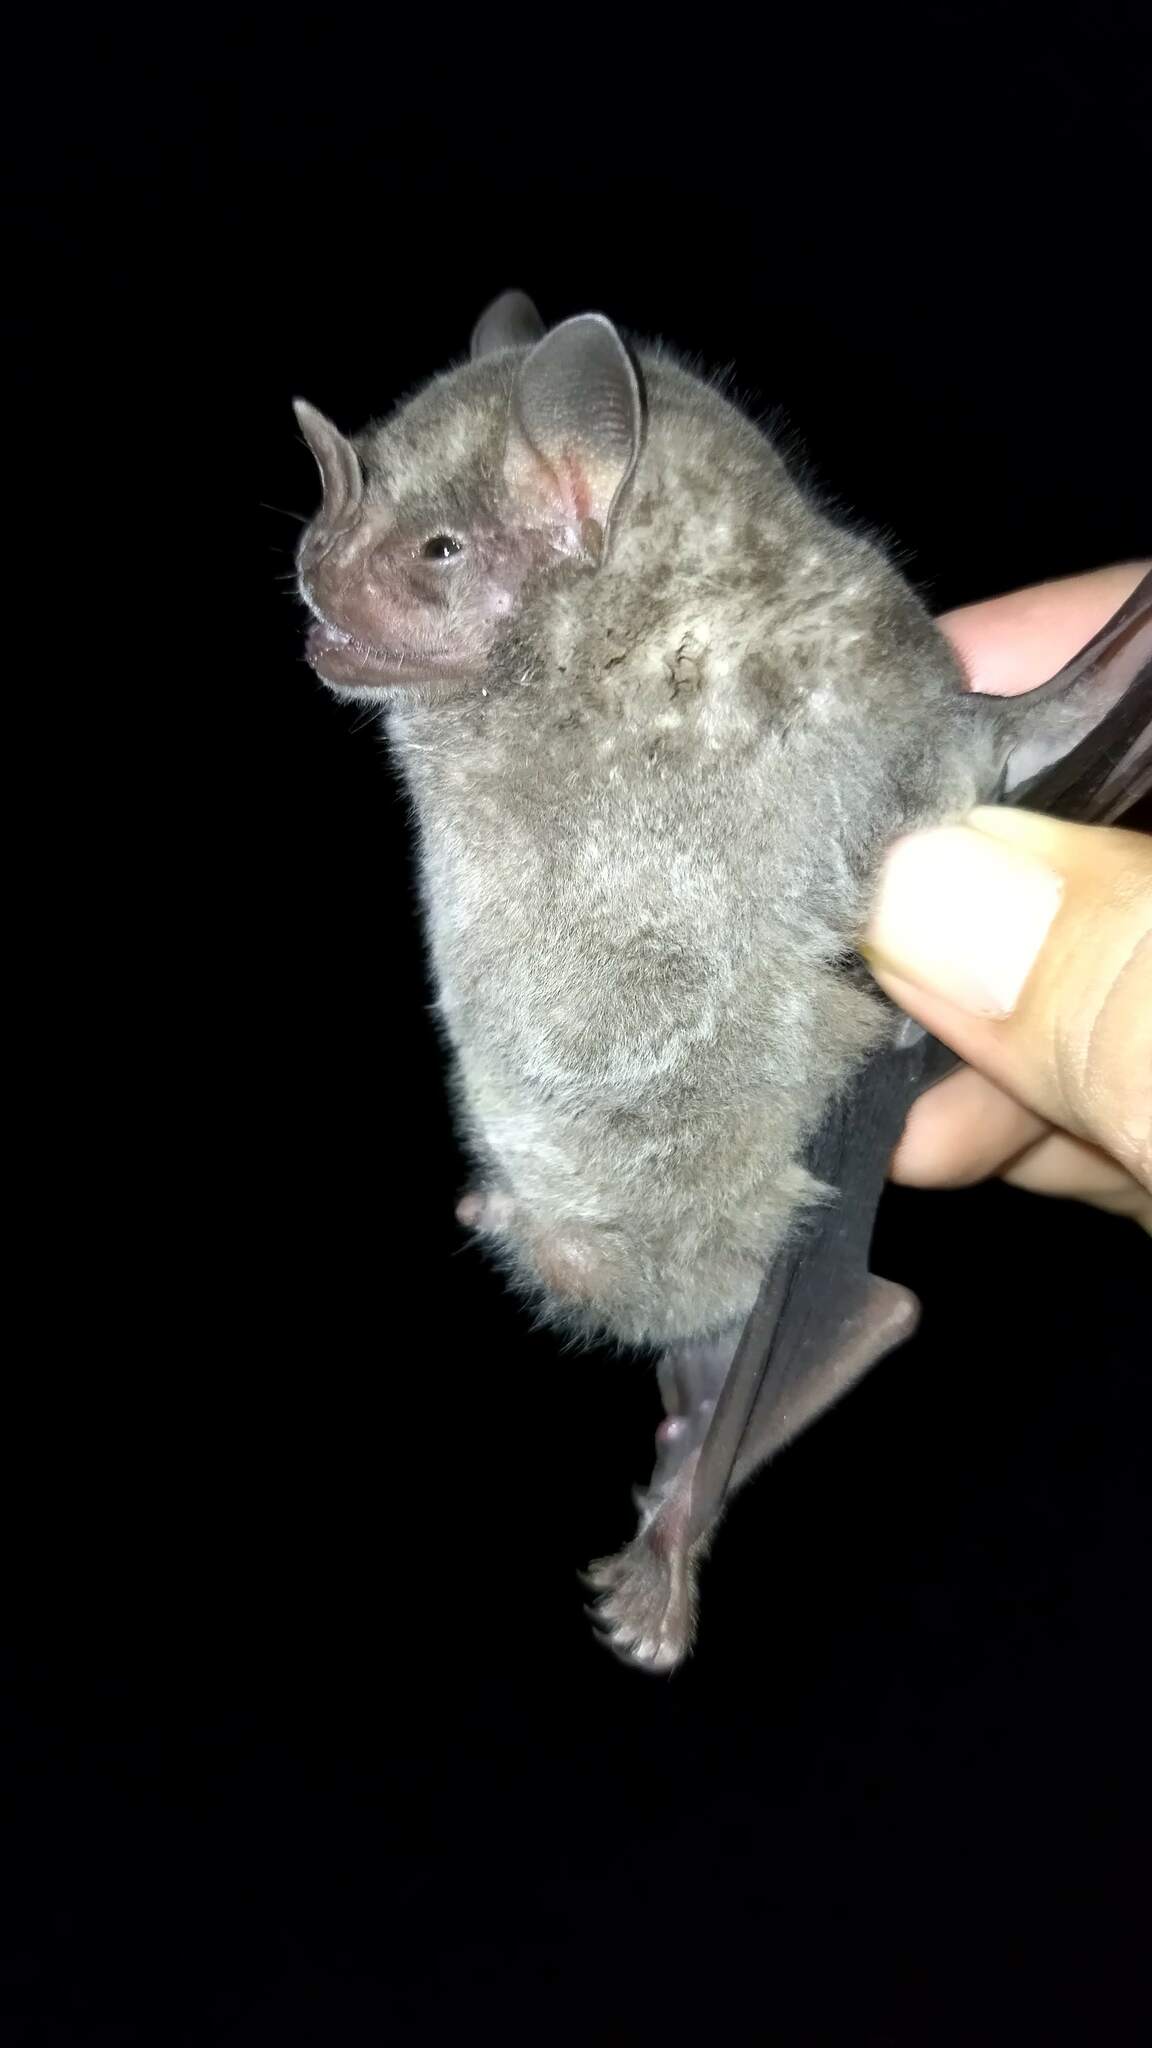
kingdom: Animalia
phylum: Chordata
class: Mammalia
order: Chiroptera
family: Phyllostomidae
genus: Artibeus
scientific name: Artibeus jamaicensis
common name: Jamaican fruit-eating bat
